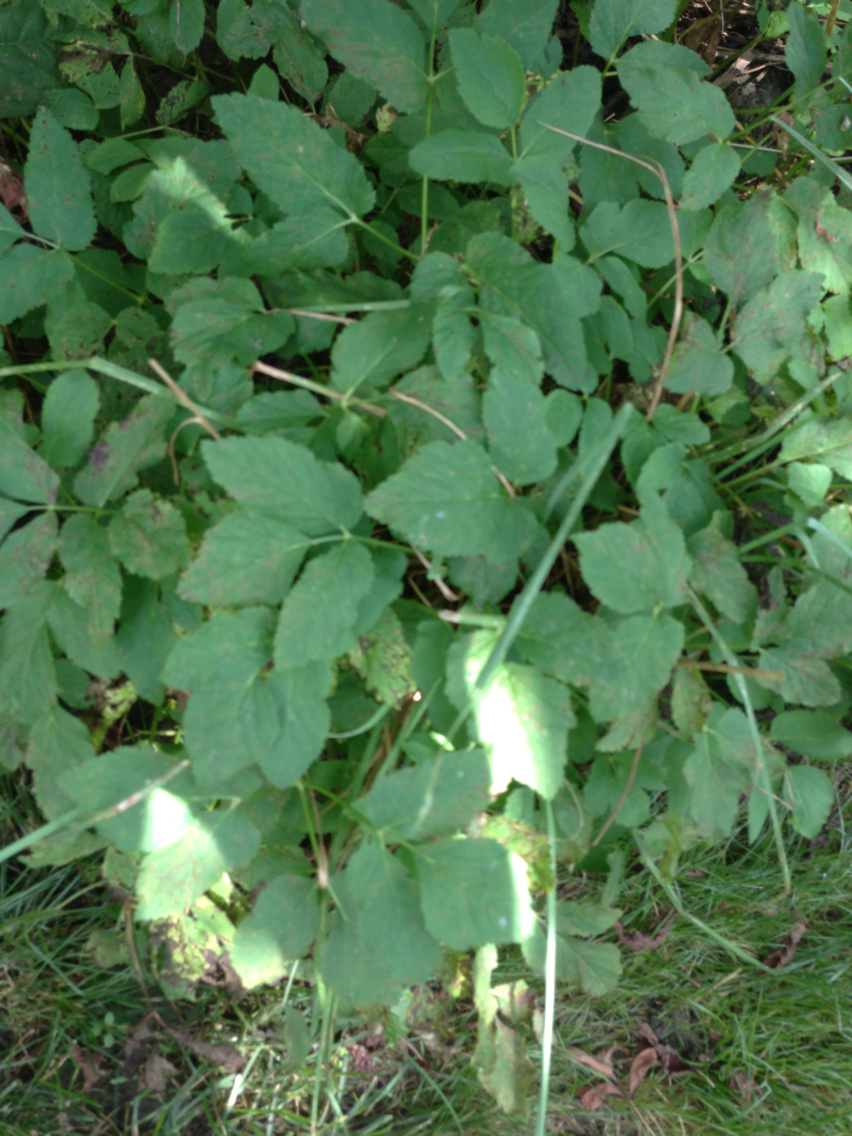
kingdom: Plantae
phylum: Tracheophyta
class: Magnoliopsida
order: Apiales
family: Apiaceae
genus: Aegopodium
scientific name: Aegopodium podagraria
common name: Ground-elder
